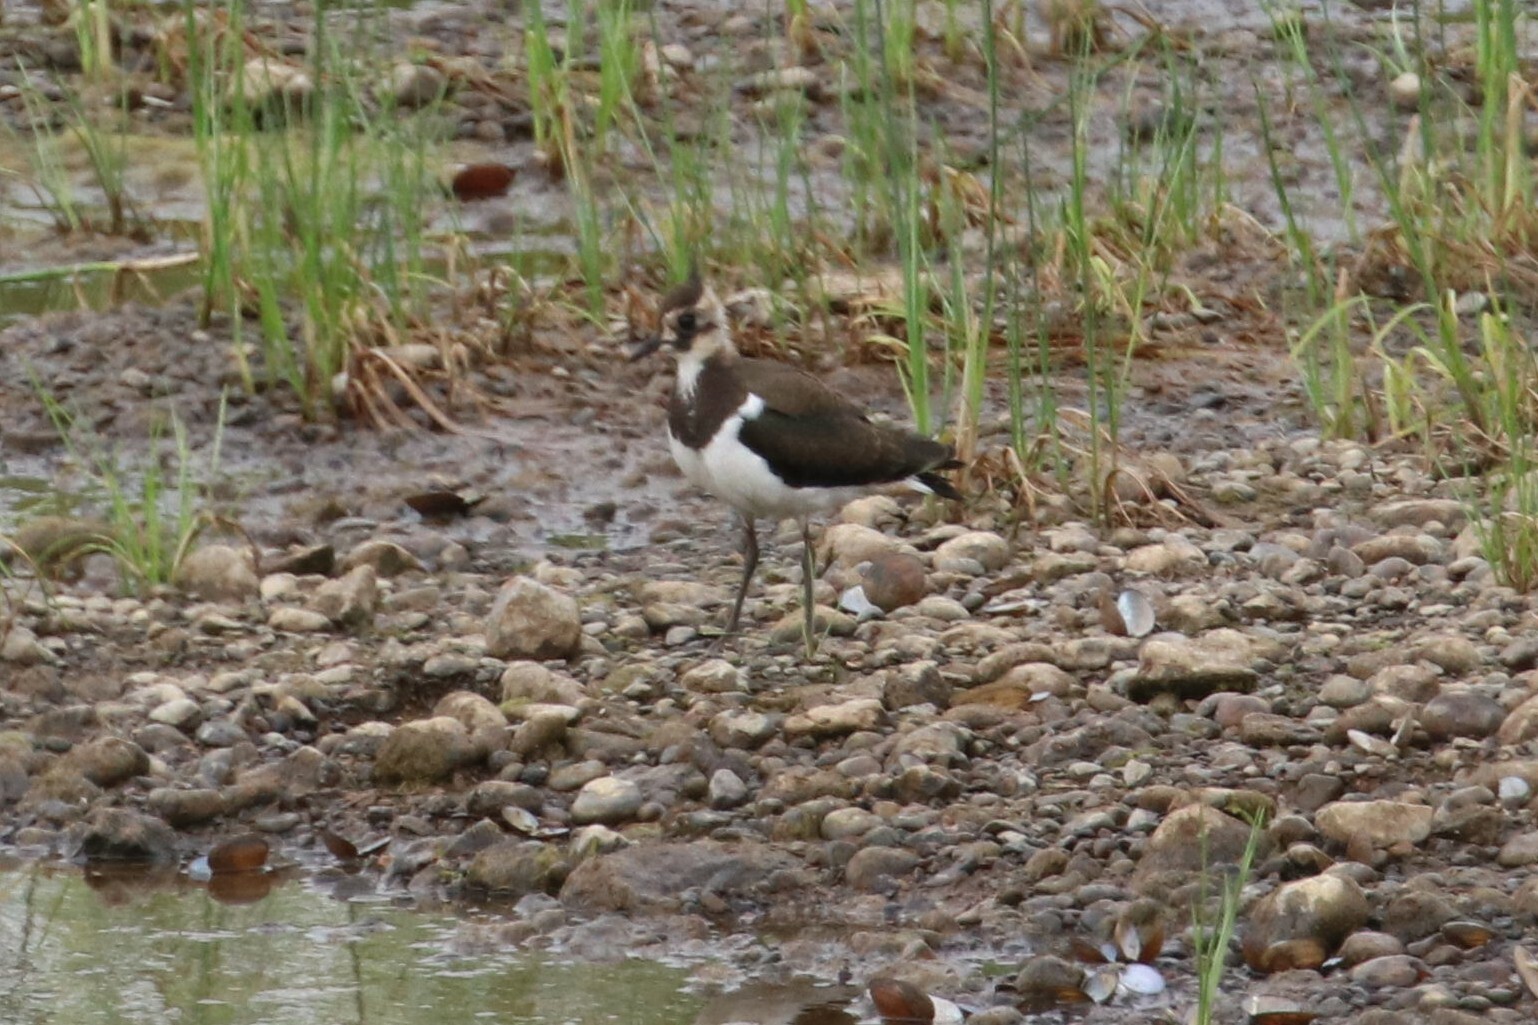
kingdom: Animalia
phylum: Chordata
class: Aves
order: Charadriiformes
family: Charadriidae
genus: Vanellus
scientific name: Vanellus vanellus
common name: Northern lapwing
